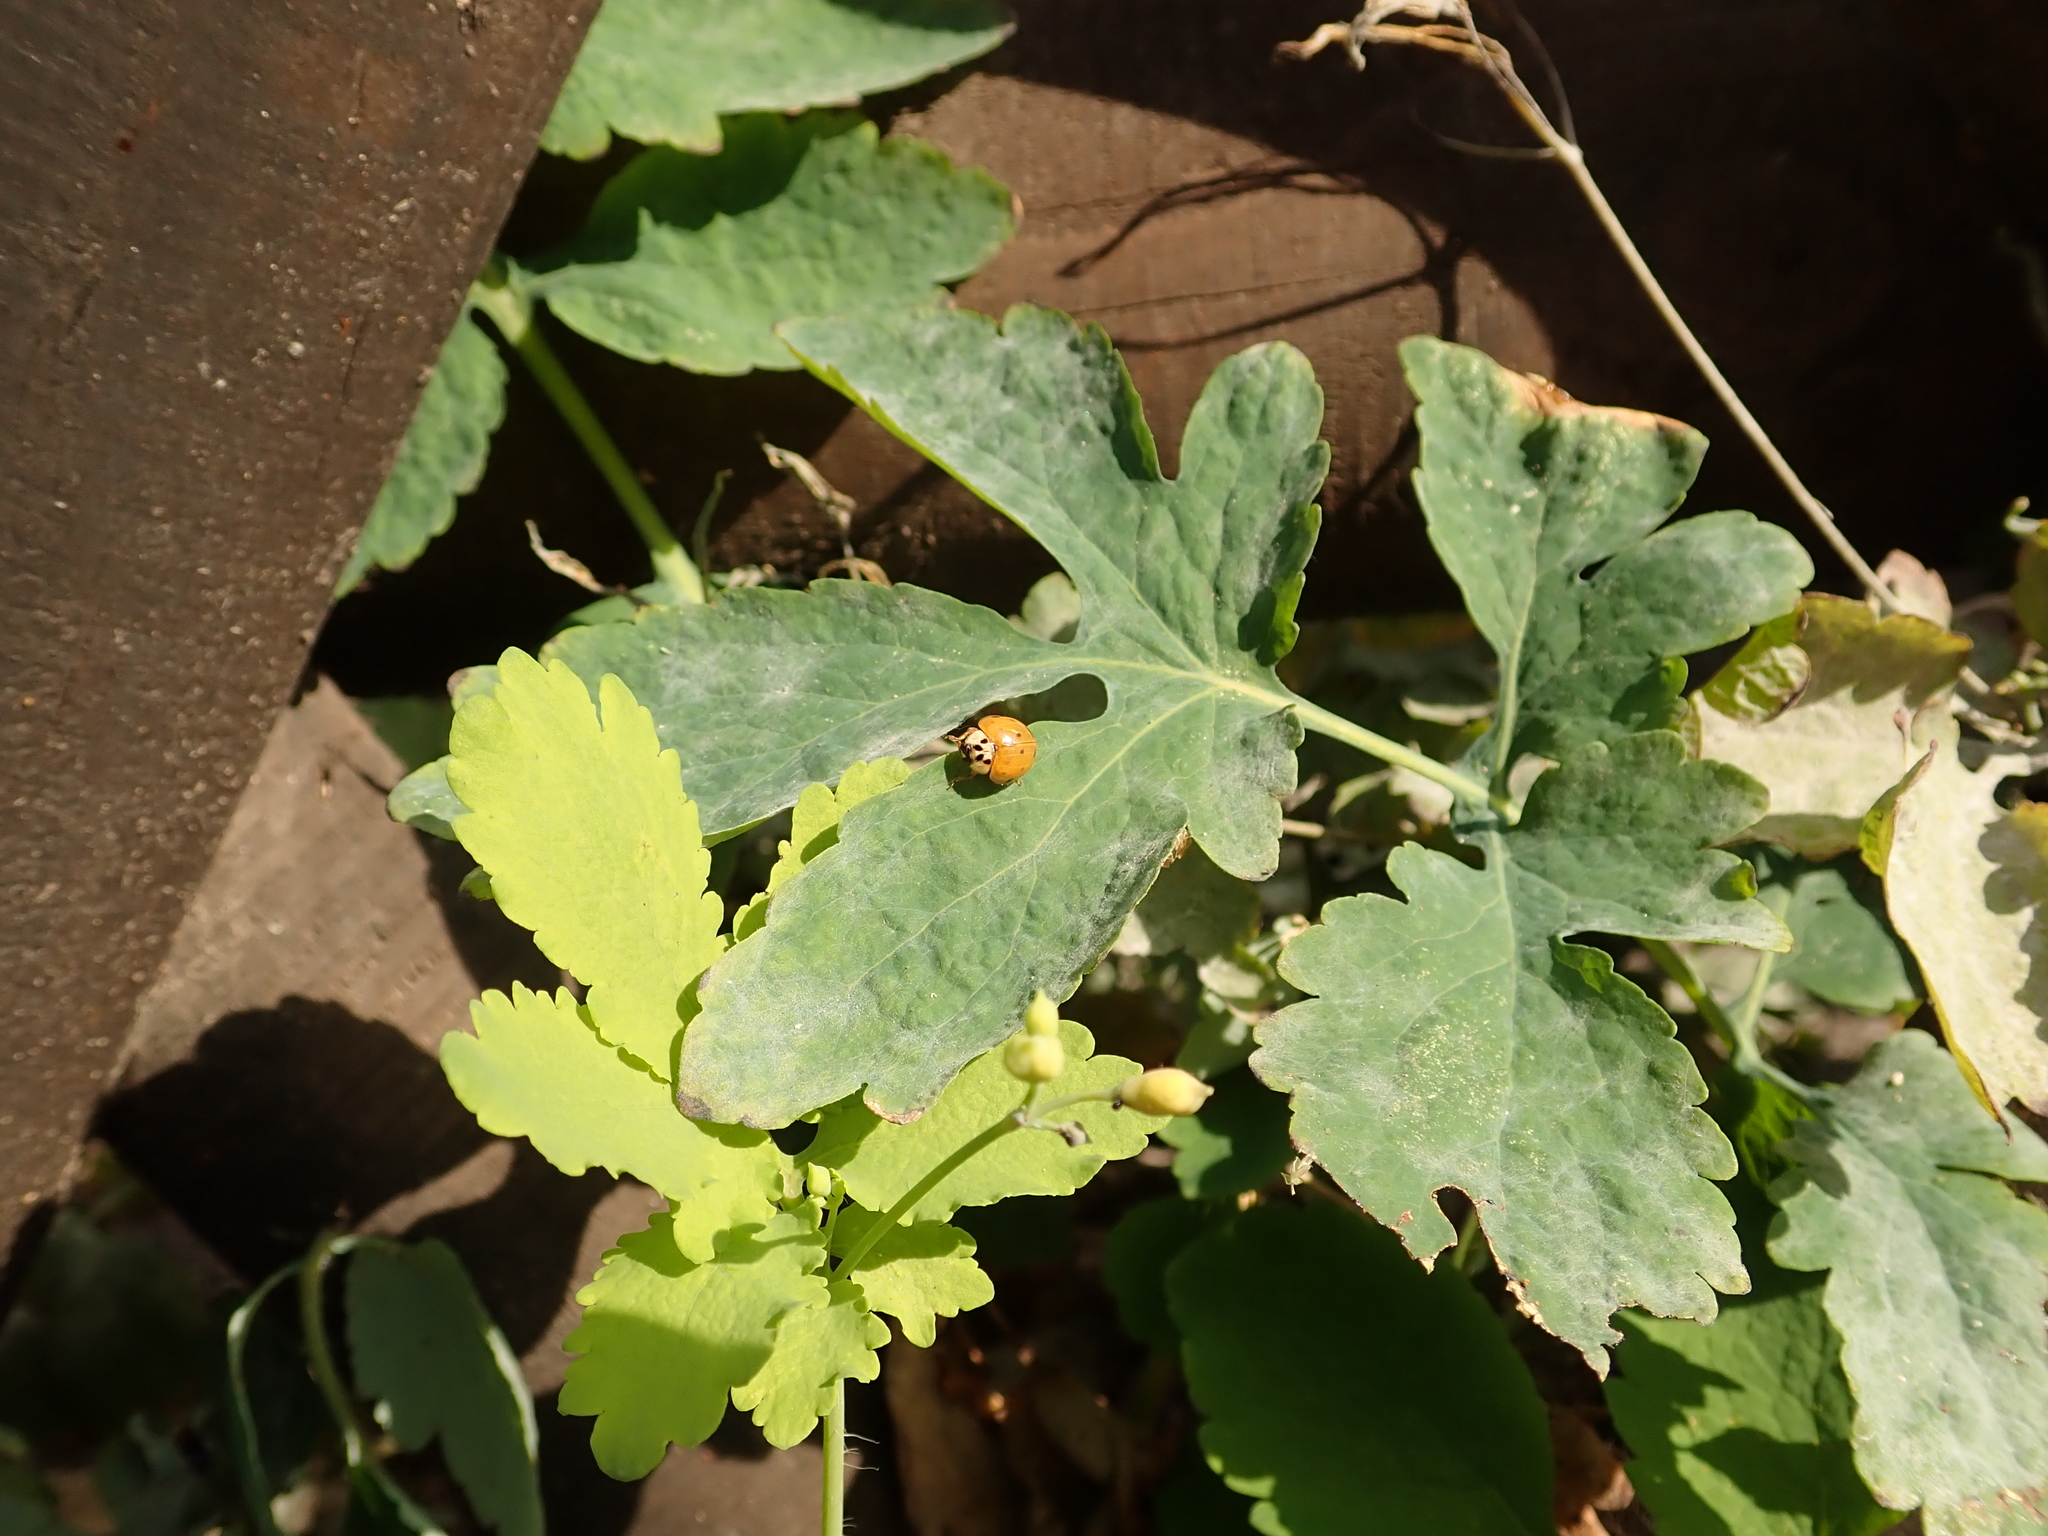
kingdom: Animalia
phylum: Arthropoda
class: Insecta
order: Coleoptera
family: Coccinellidae
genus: Harmonia
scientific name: Harmonia axyridis
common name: Harlequin ladybird
